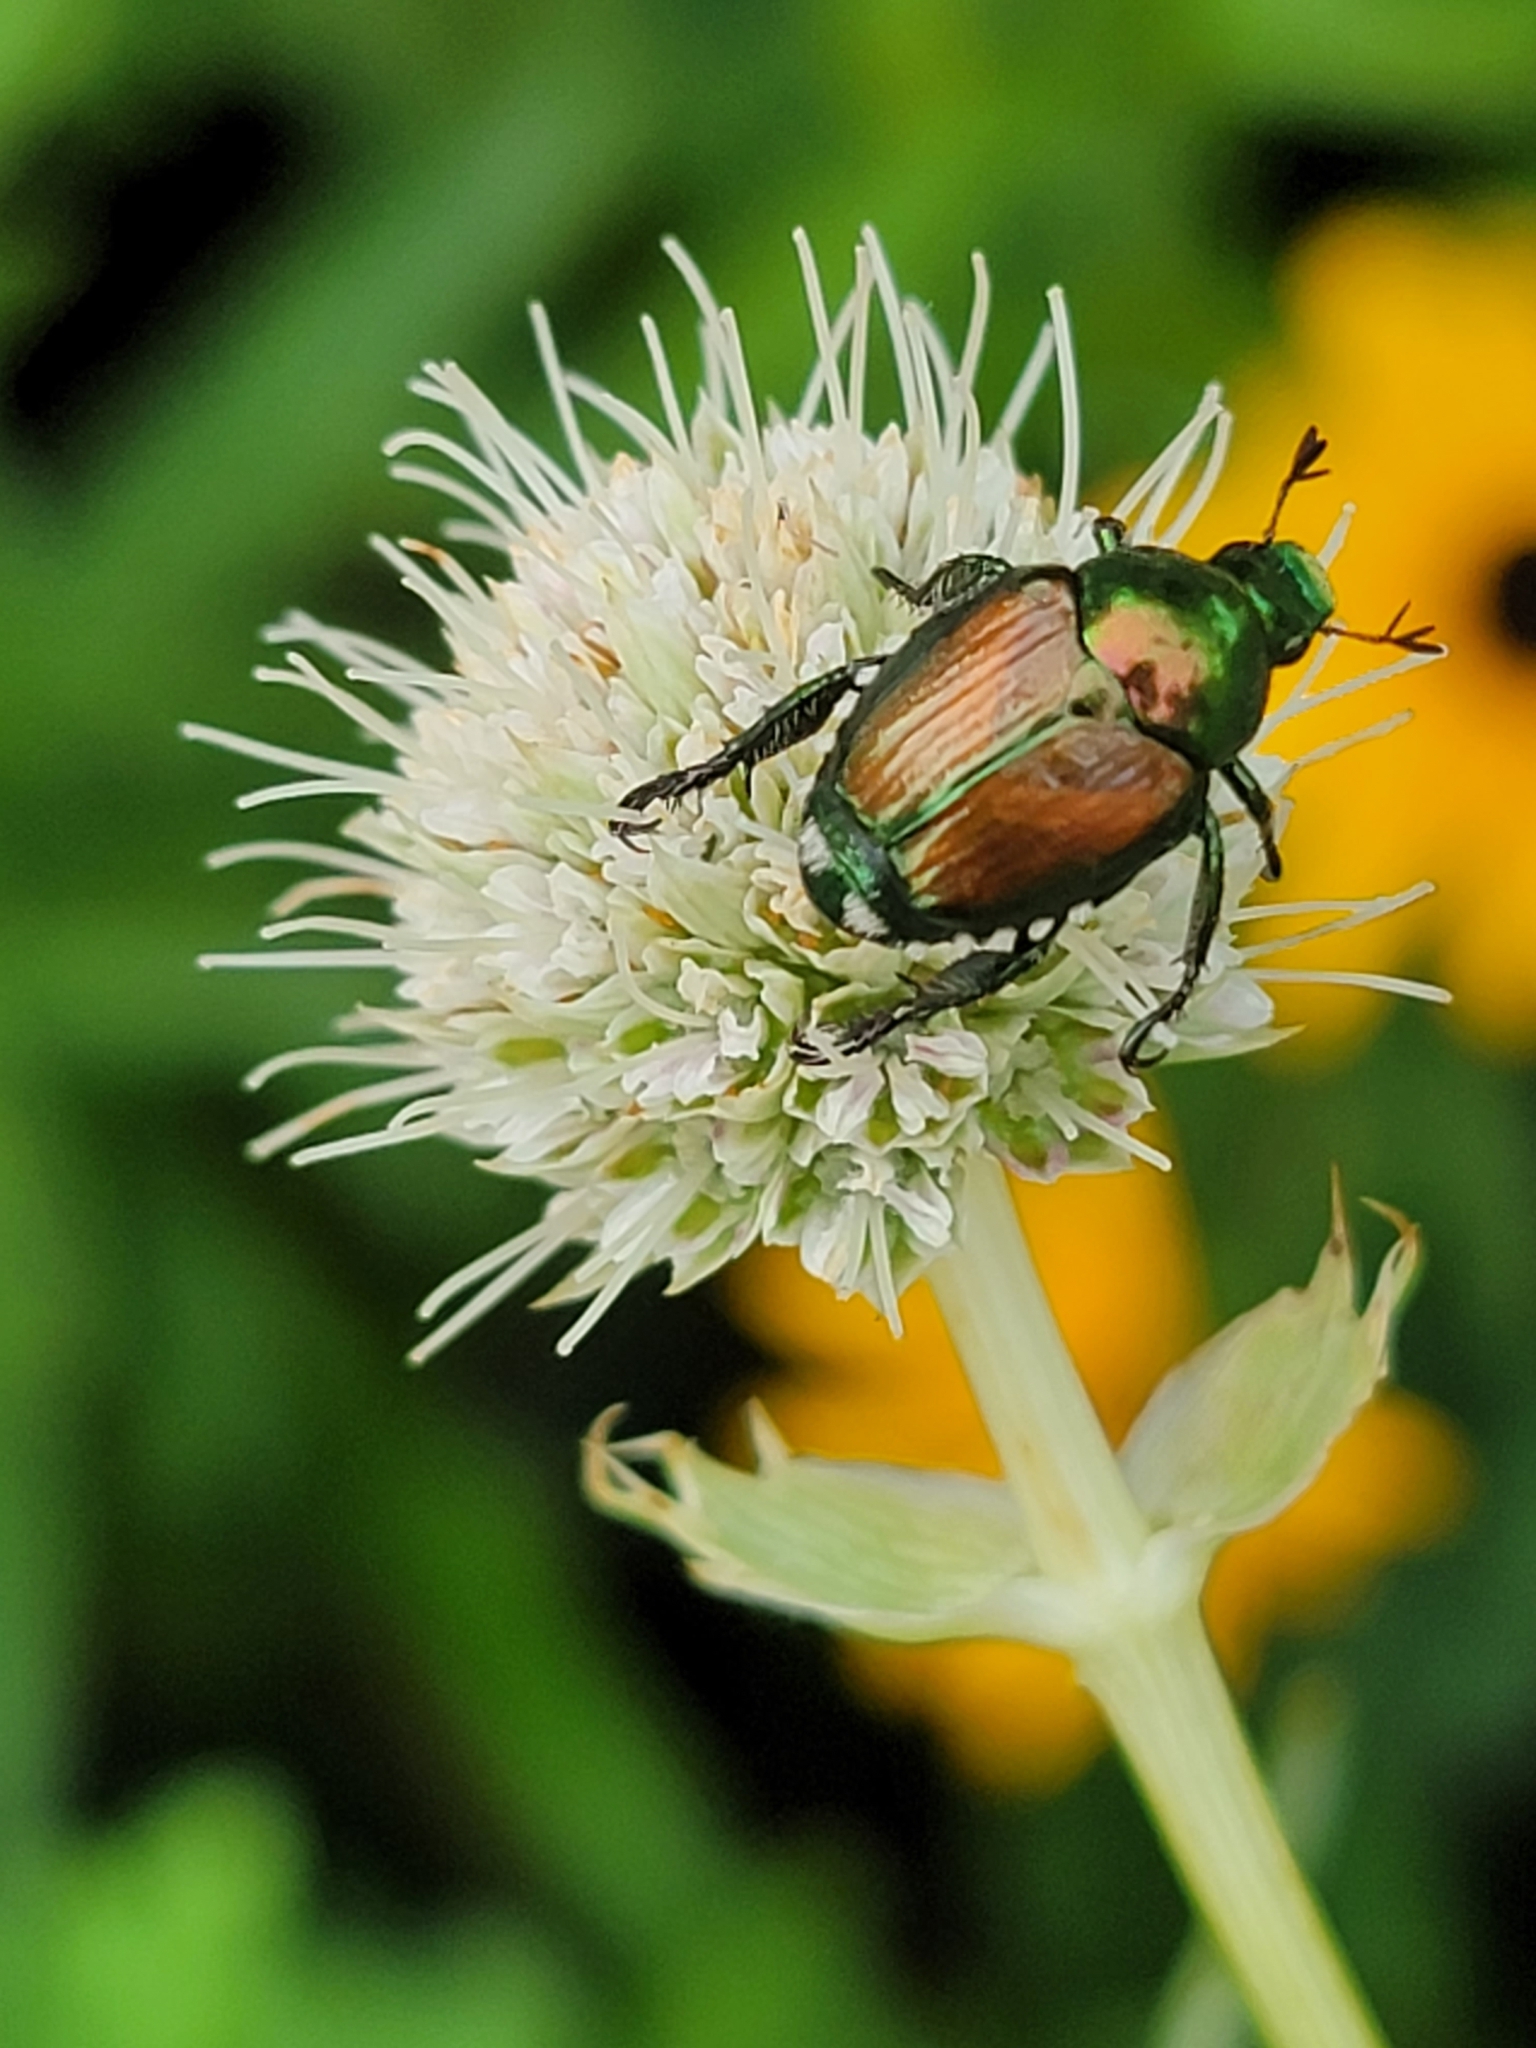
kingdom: Animalia
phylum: Arthropoda
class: Insecta
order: Coleoptera
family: Scarabaeidae
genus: Popillia
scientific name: Popillia japonica
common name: Japanese beetle
